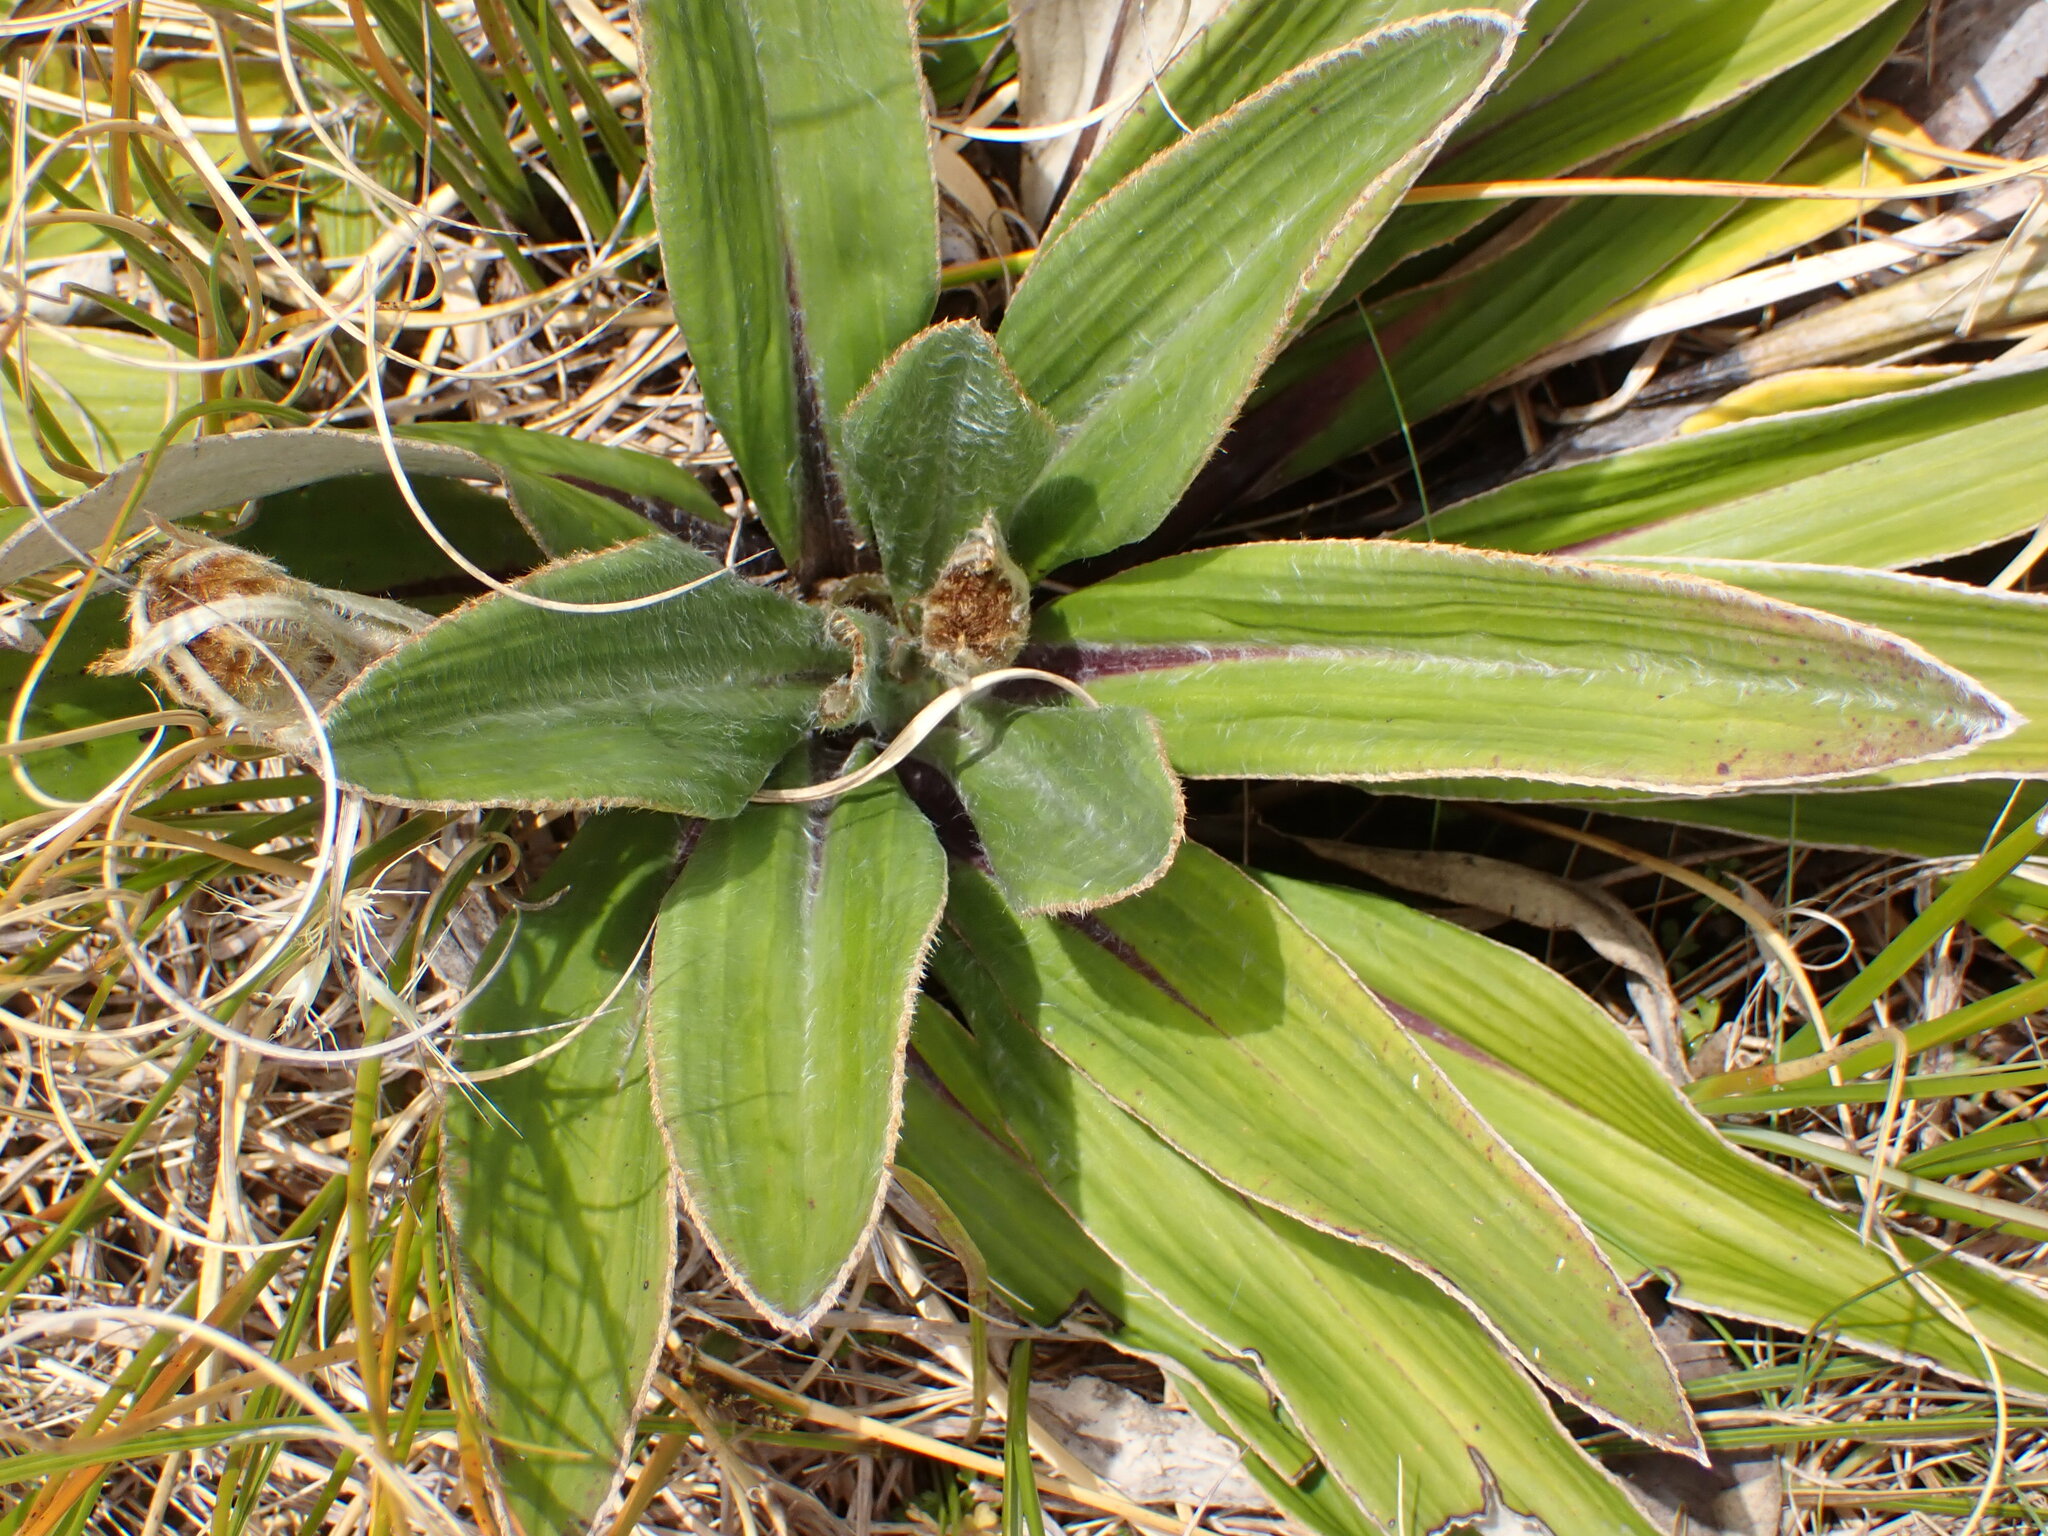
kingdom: Plantae
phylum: Tracheophyta
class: Magnoliopsida
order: Asterales
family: Asteraceae
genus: Celmisia
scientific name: Celmisia verbascifolia
